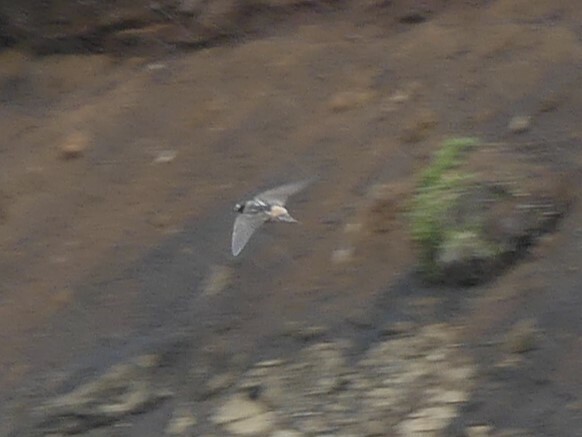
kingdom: Animalia
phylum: Chordata
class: Aves
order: Passeriformes
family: Hirundinidae
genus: Petrochelidon
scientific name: Petrochelidon pyrrhonota
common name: American cliff swallow
